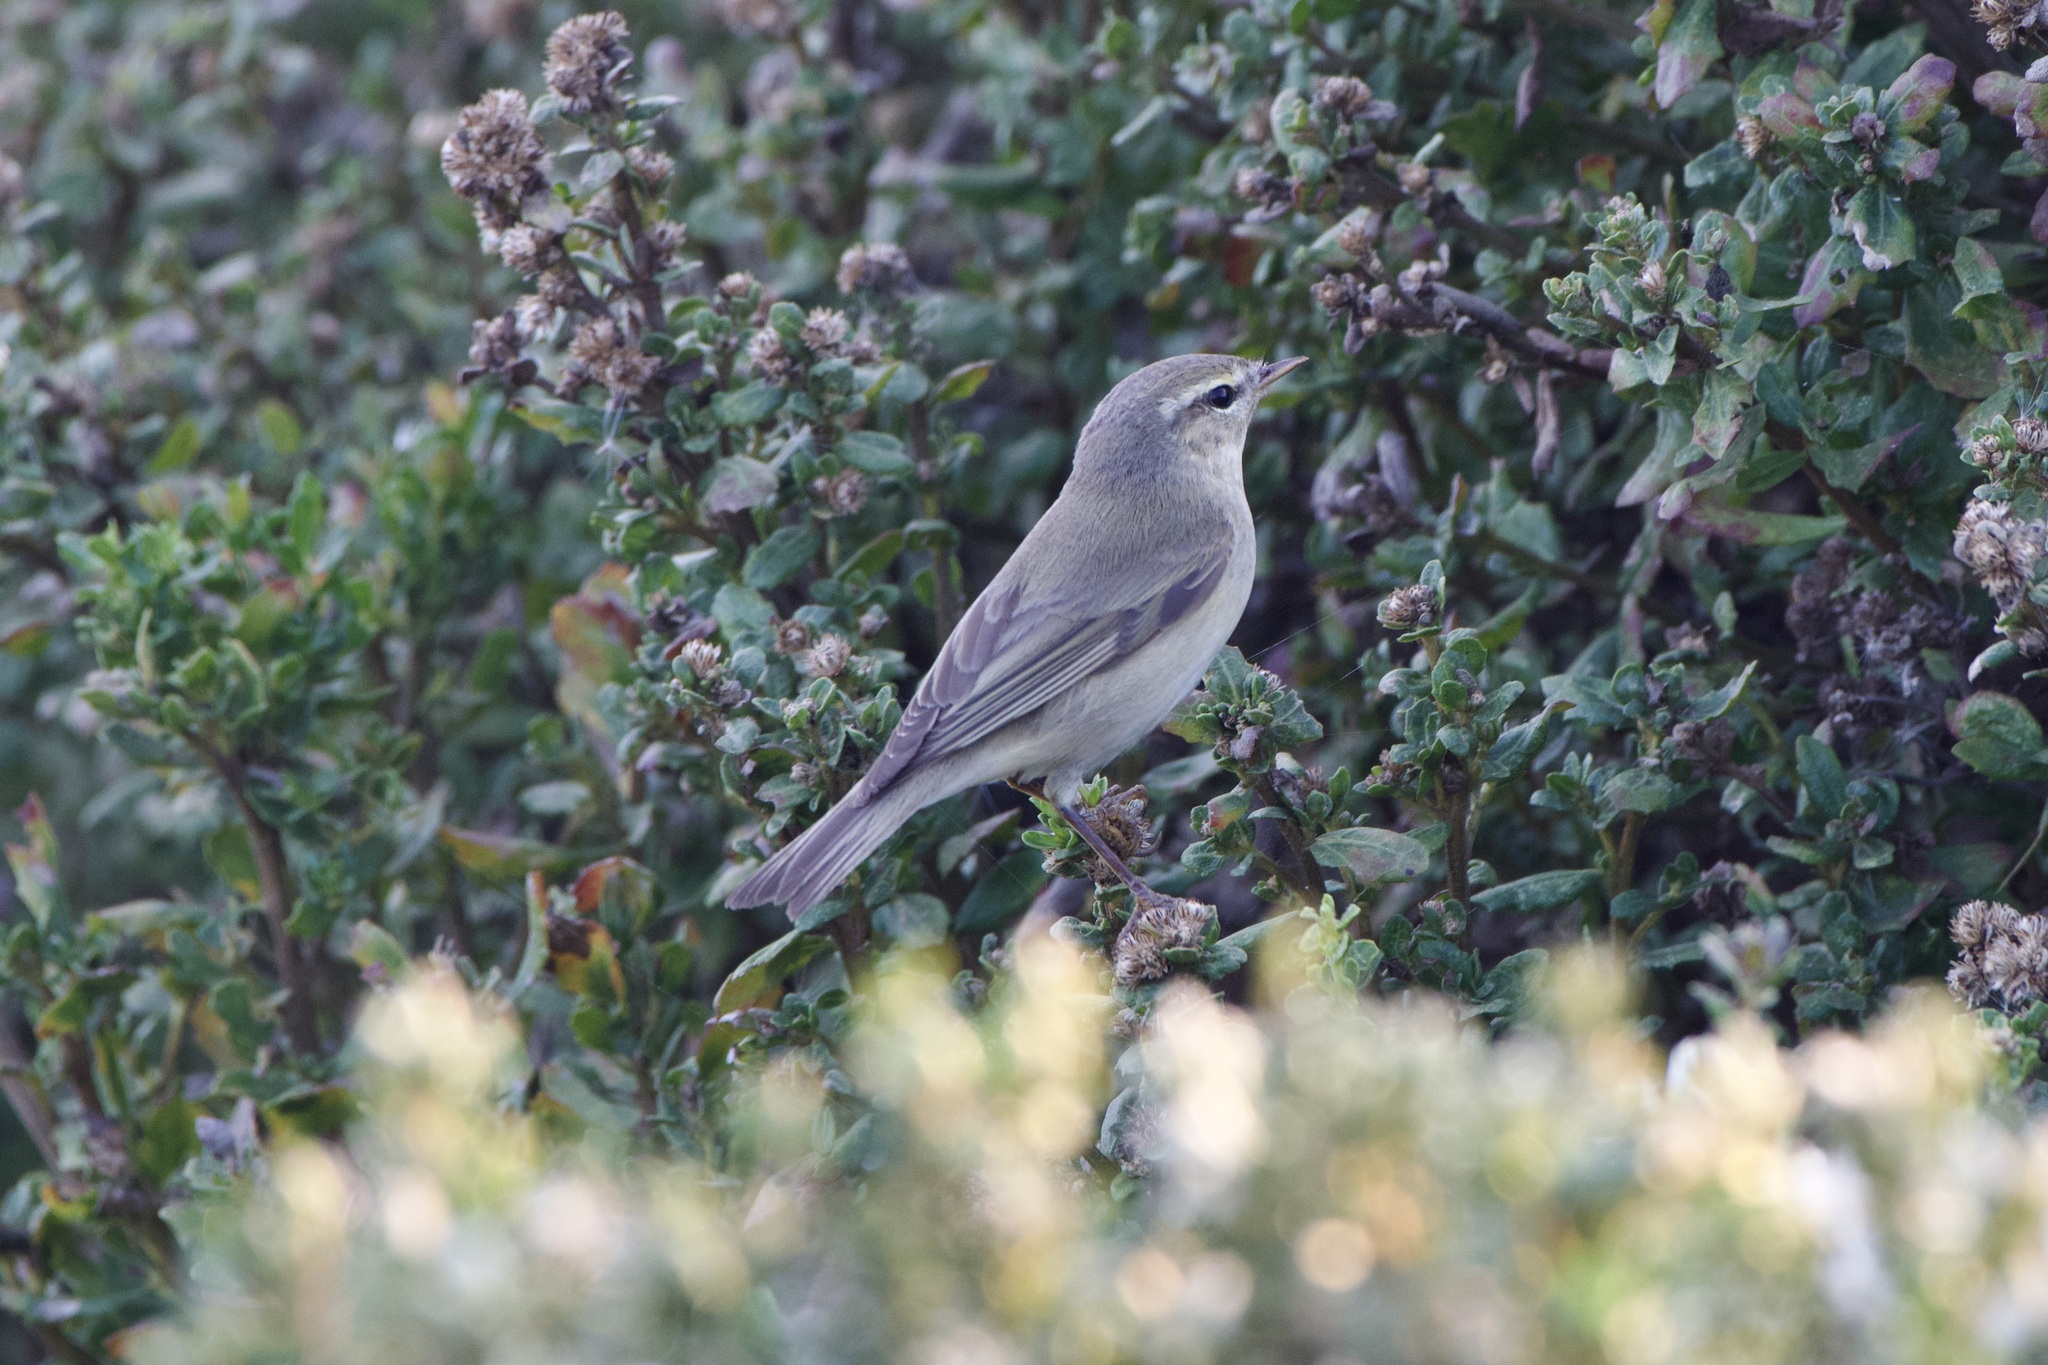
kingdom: Animalia
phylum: Chordata
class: Aves
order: Passeriformes
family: Phylloscopidae
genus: Phylloscopus
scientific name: Phylloscopus trochilus
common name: Willow warbler
